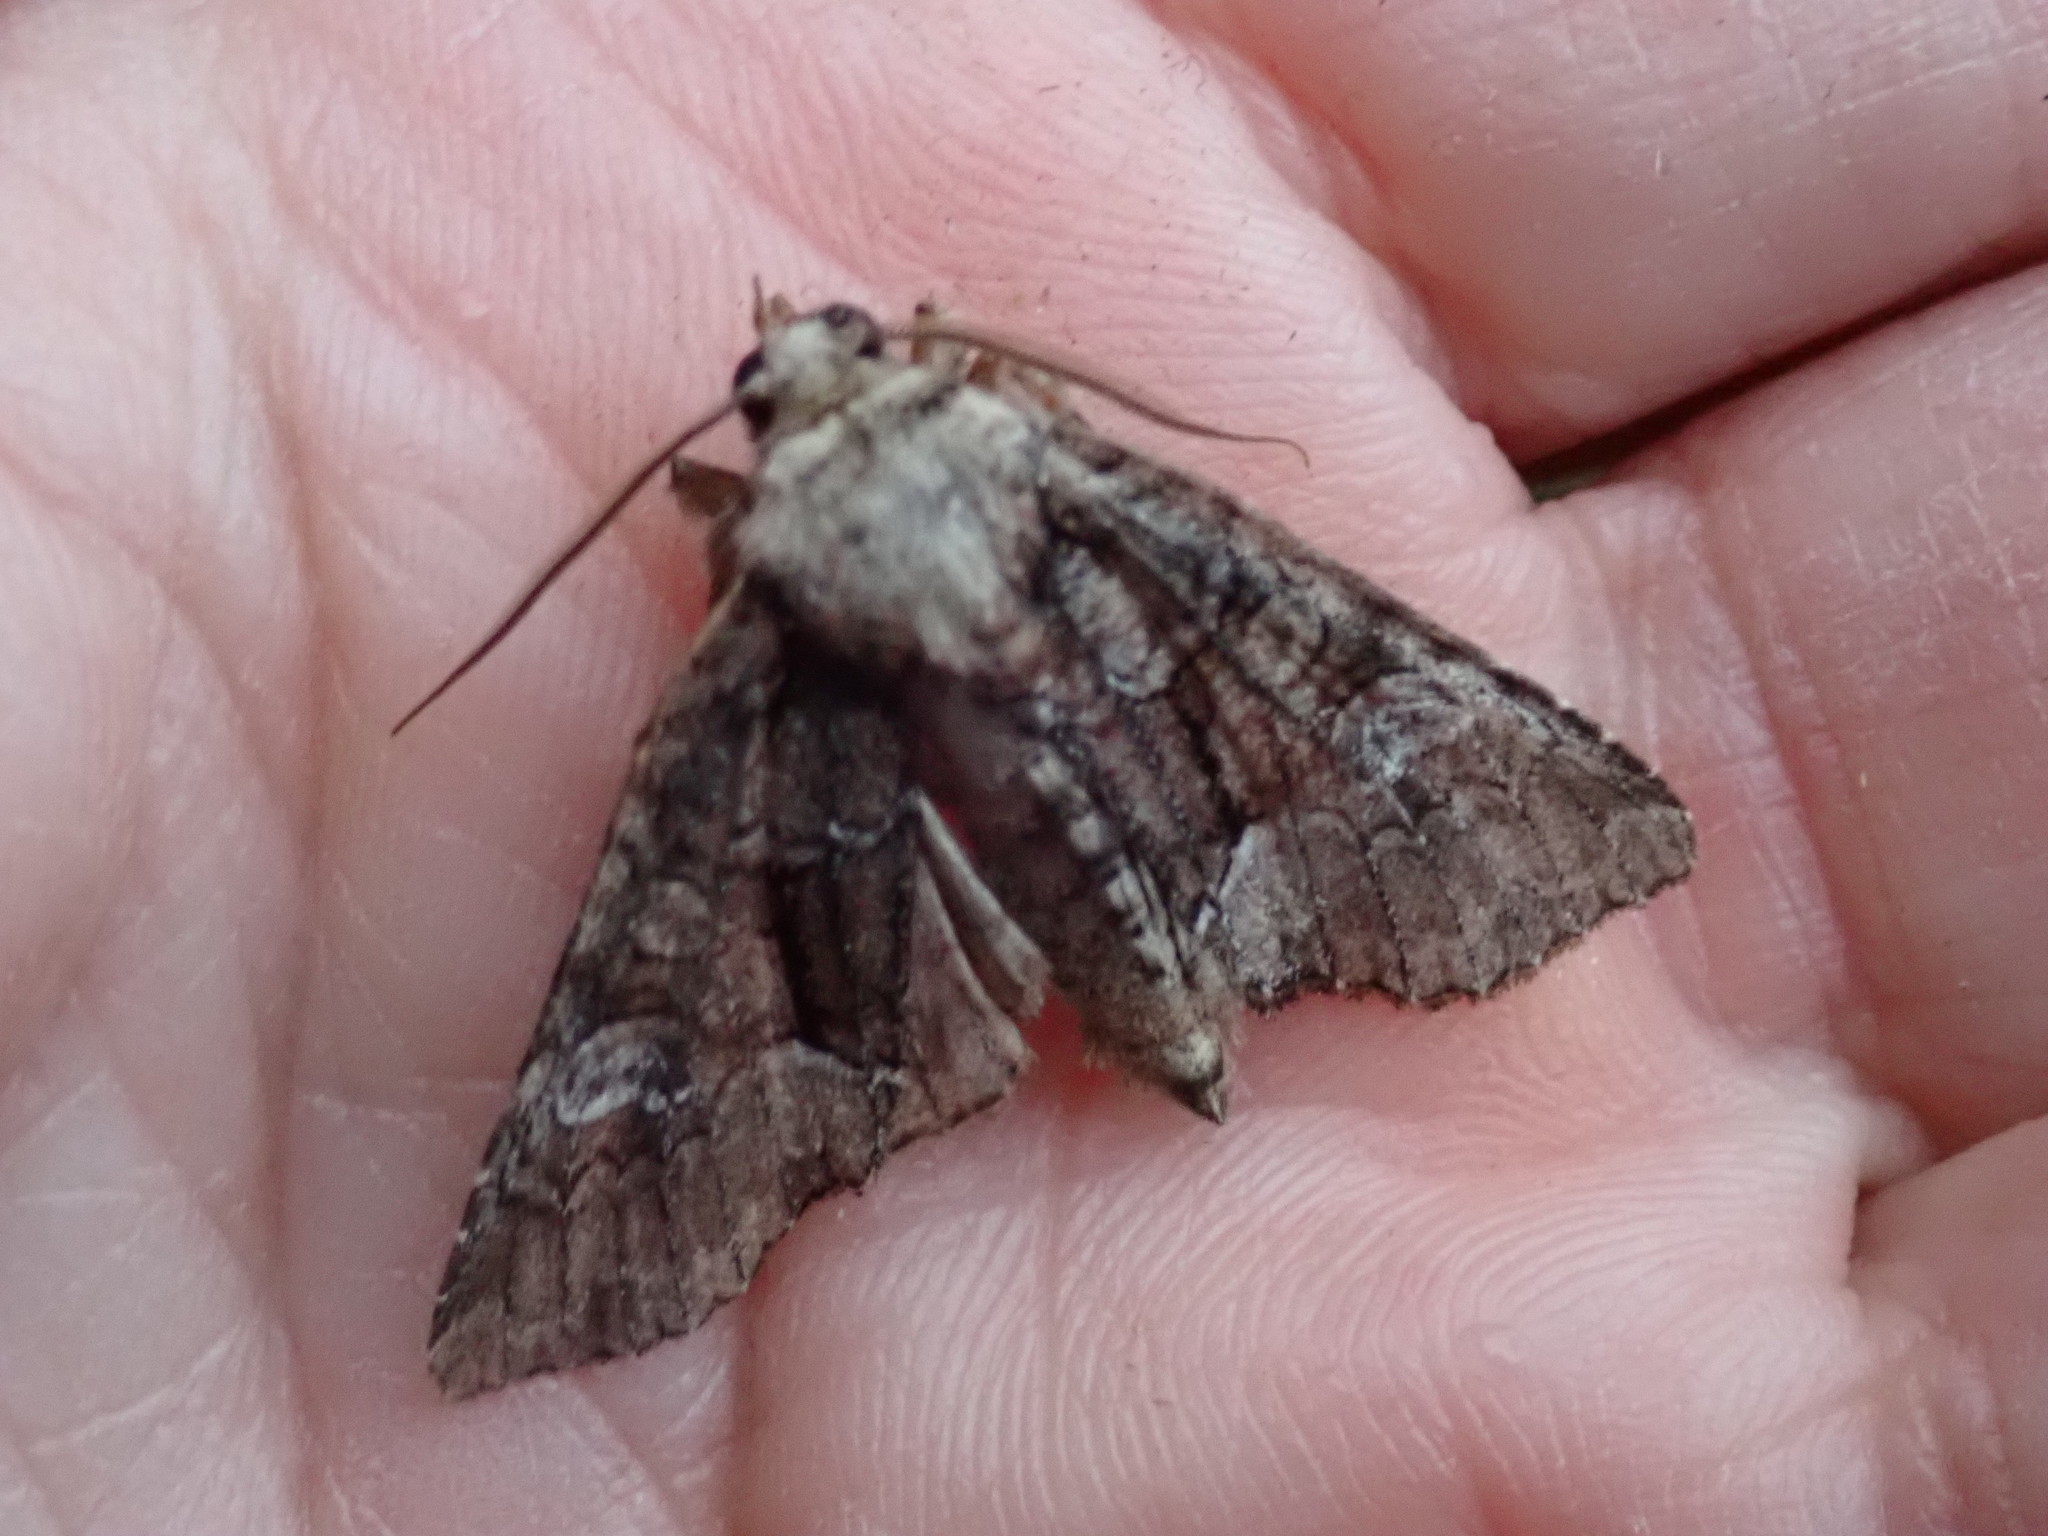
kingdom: Animalia
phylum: Arthropoda
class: Insecta
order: Lepidoptera
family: Noctuidae
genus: Fishia
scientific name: Fishia illocata
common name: Wandering brocade moth
